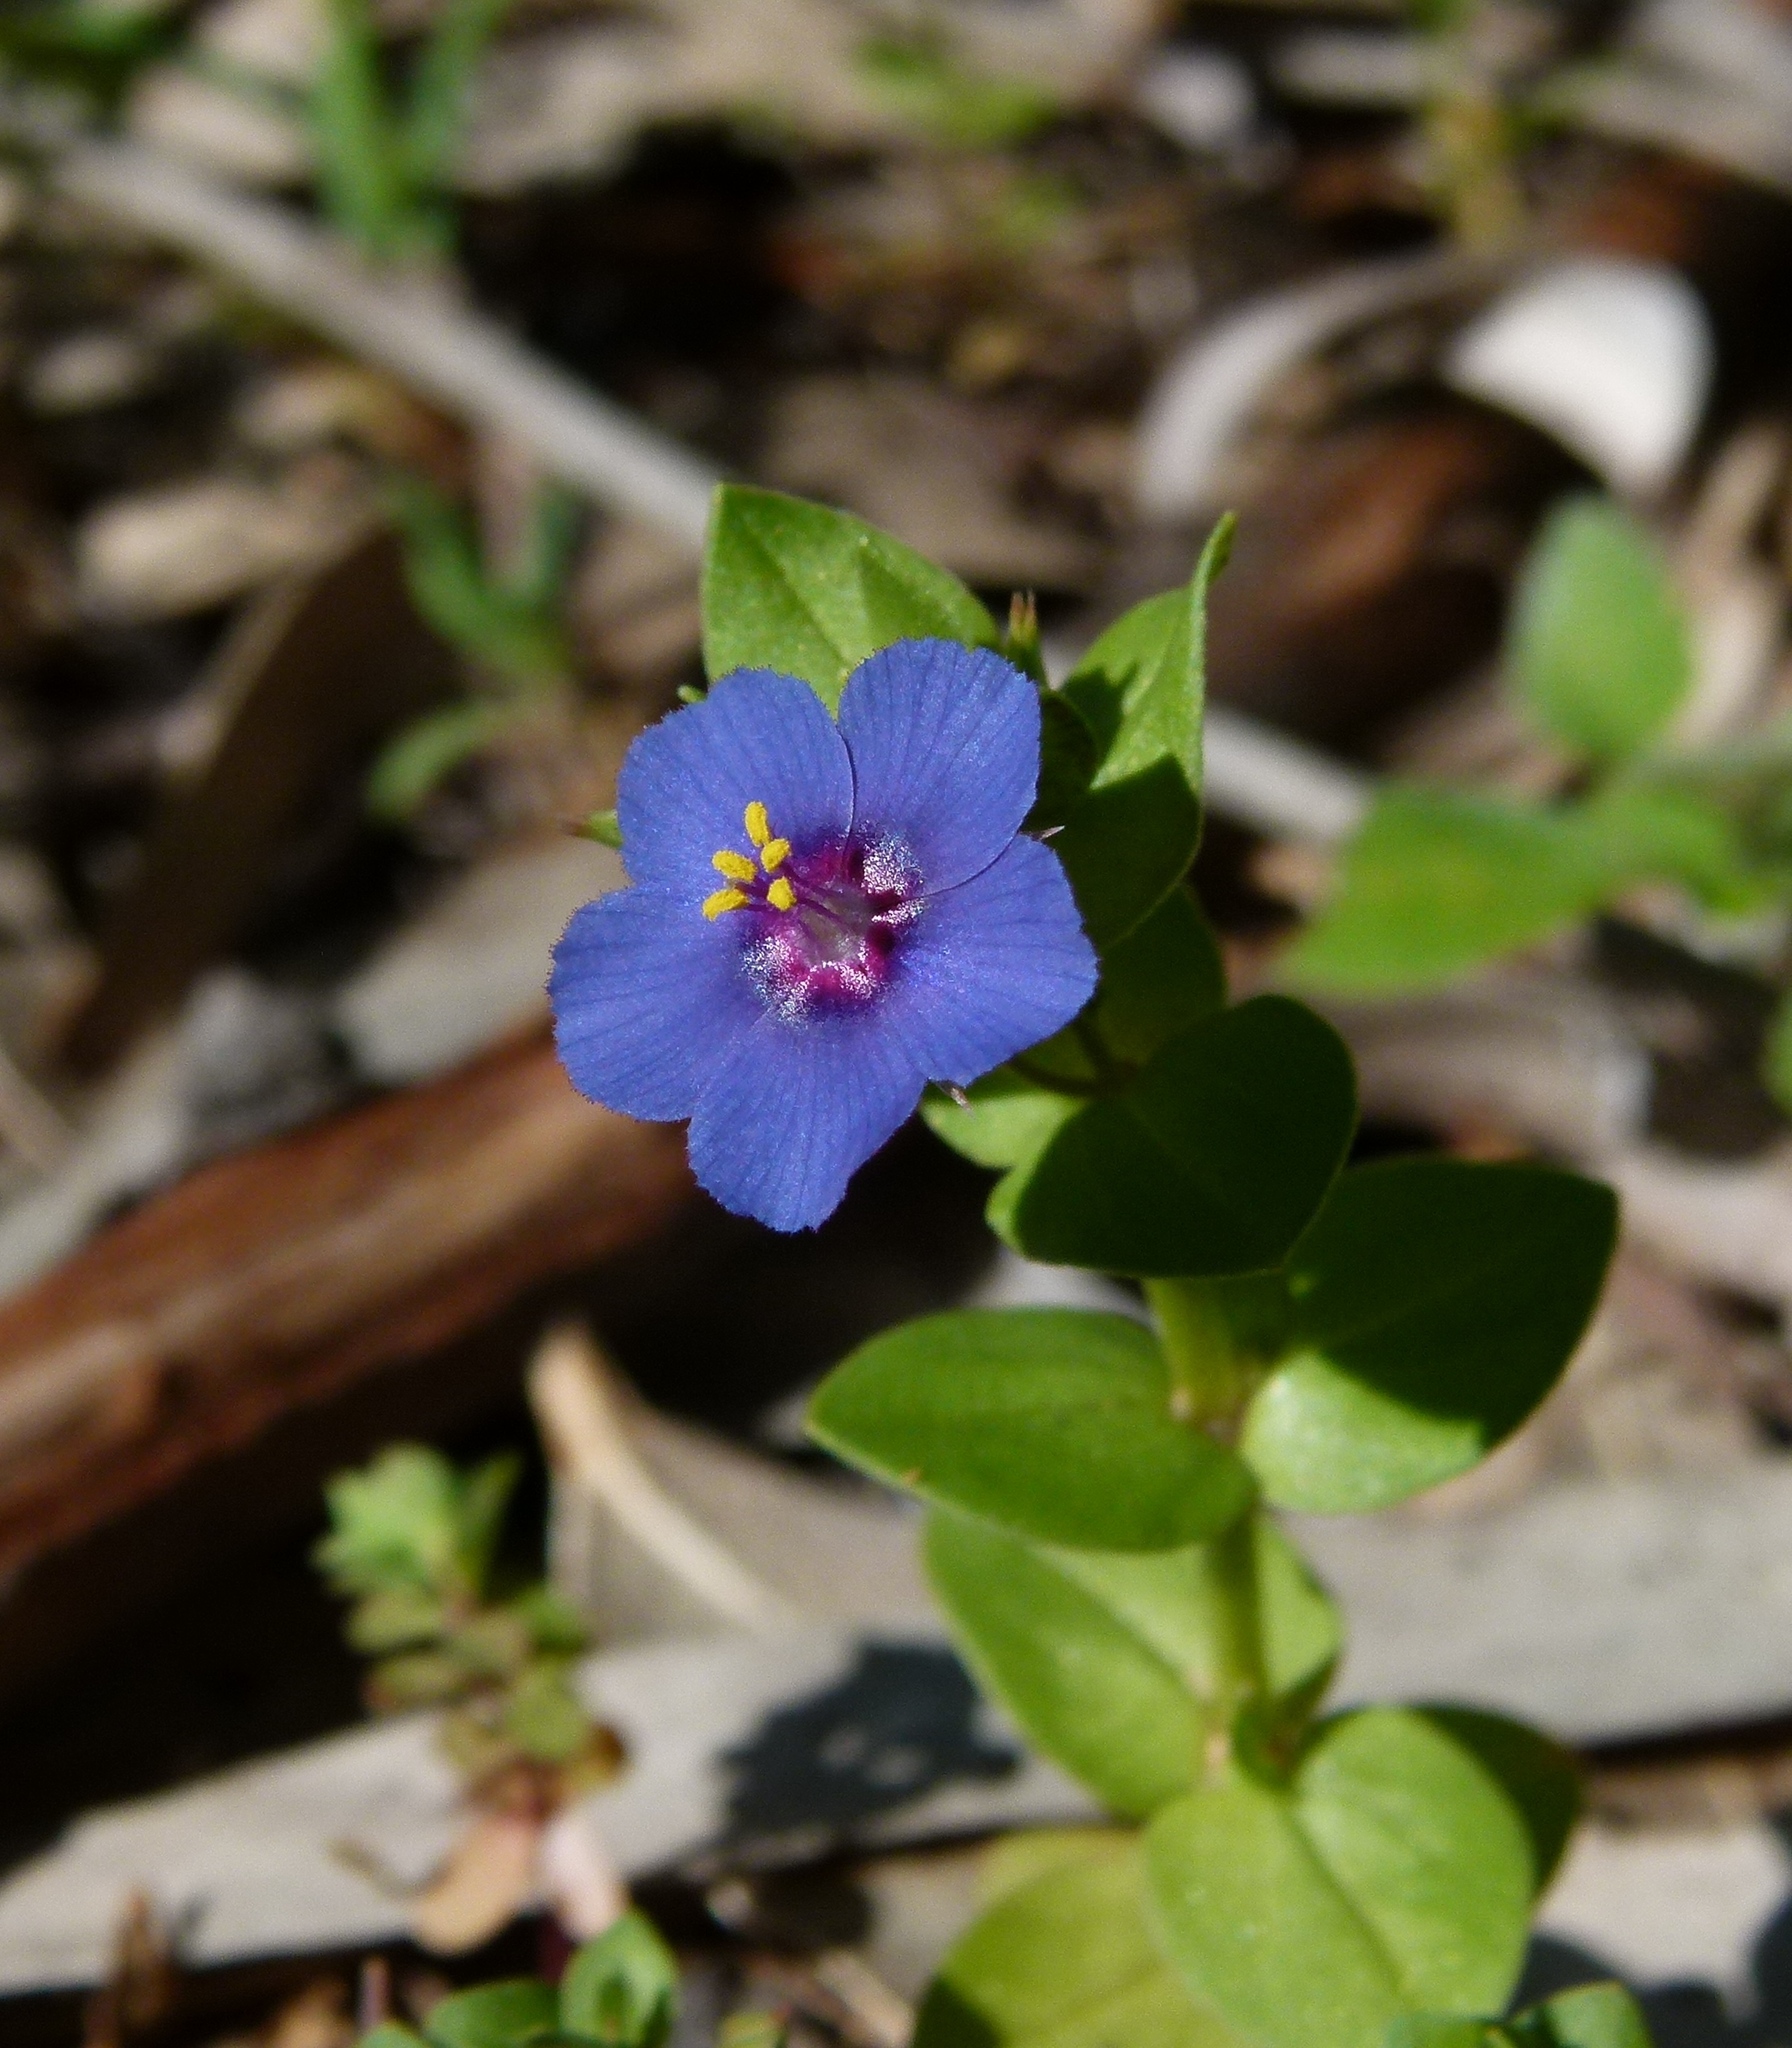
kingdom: Plantae
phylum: Tracheophyta
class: Magnoliopsida
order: Ericales
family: Primulaceae
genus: Lysimachia
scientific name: Lysimachia loeflingii
